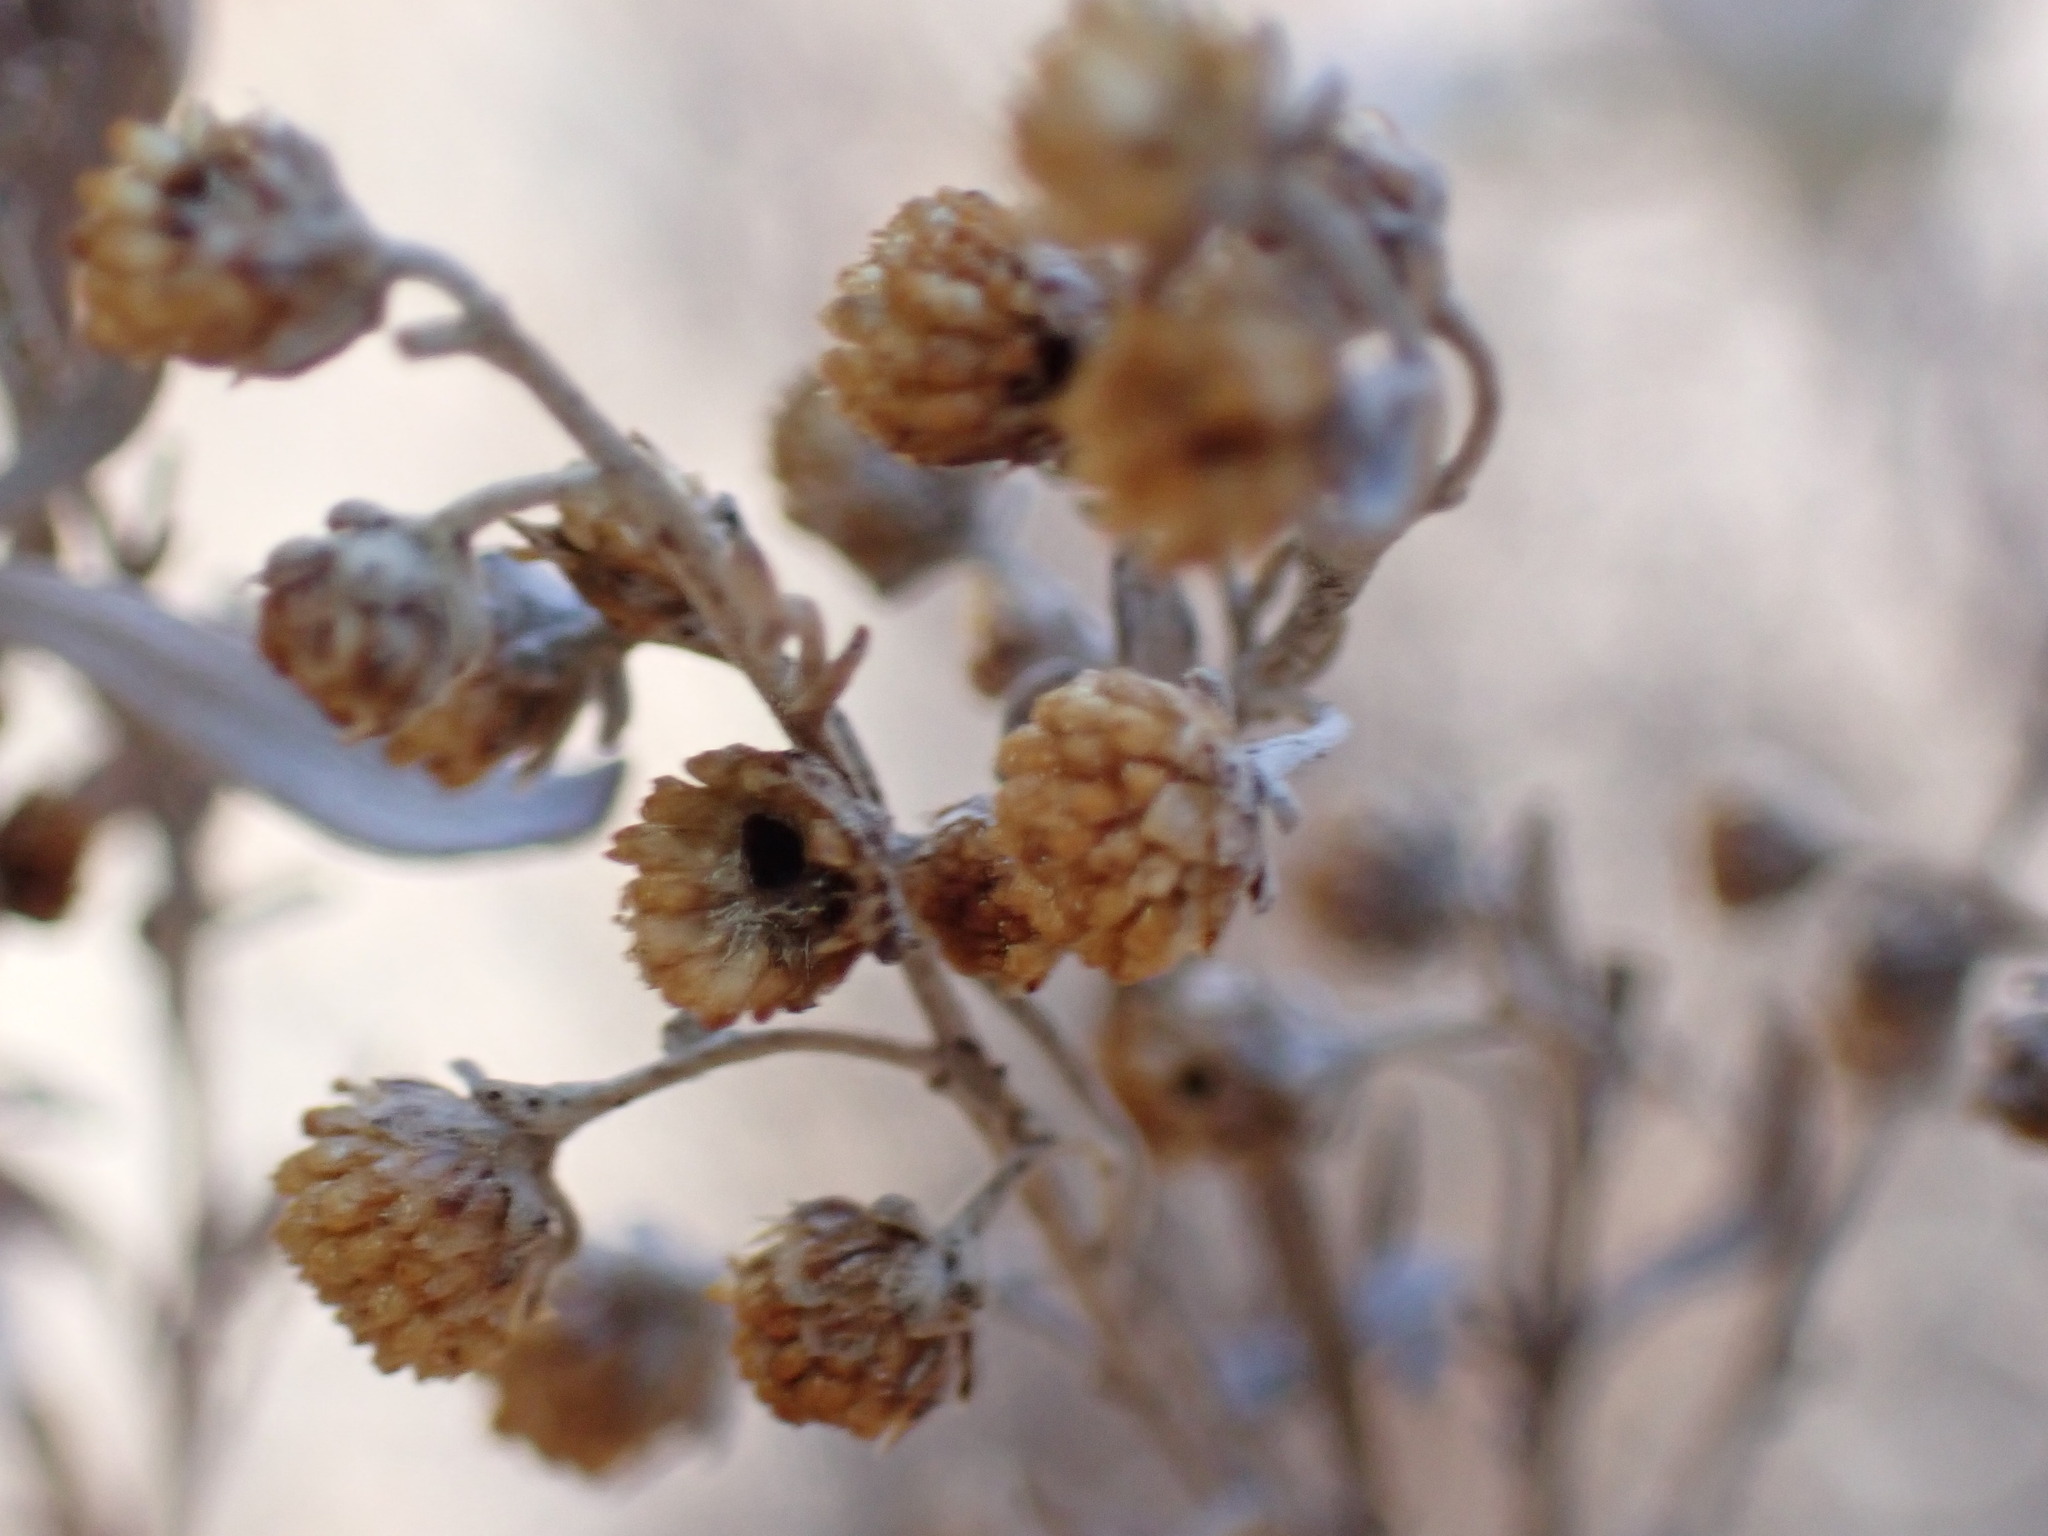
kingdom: Plantae
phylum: Tracheophyta
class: Magnoliopsida
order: Asterales
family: Asteraceae
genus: Artemisia
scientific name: Artemisia thuscula
